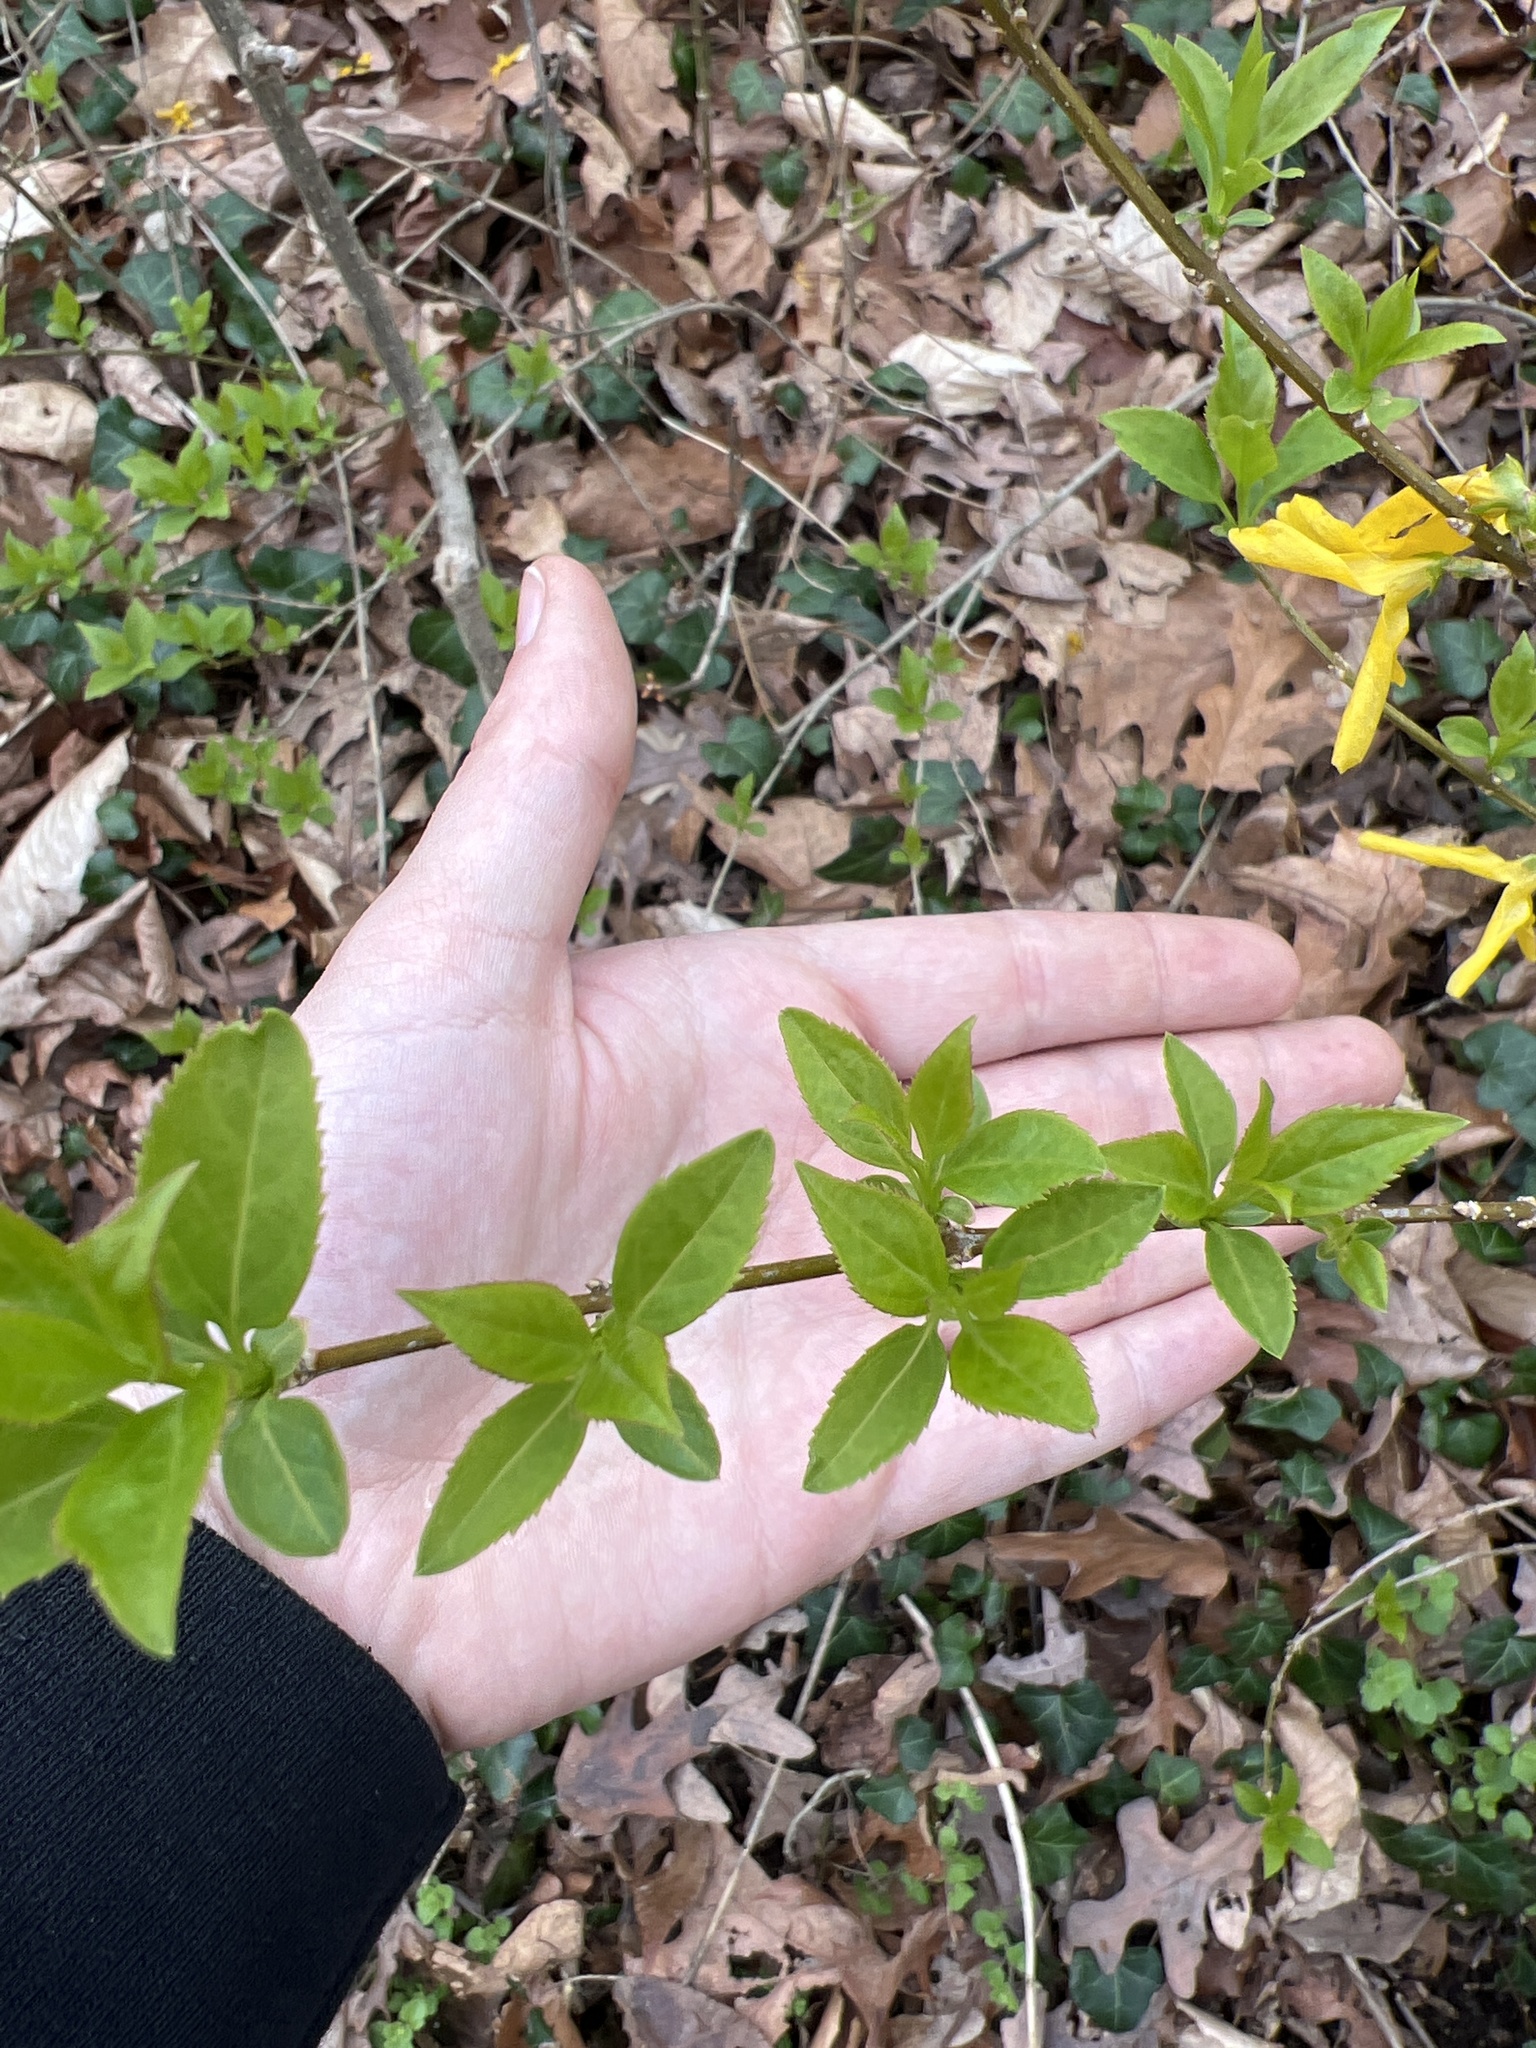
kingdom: Plantae
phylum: Tracheophyta
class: Magnoliopsida
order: Lamiales
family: Oleaceae
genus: Forsythia
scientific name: Forsythia
